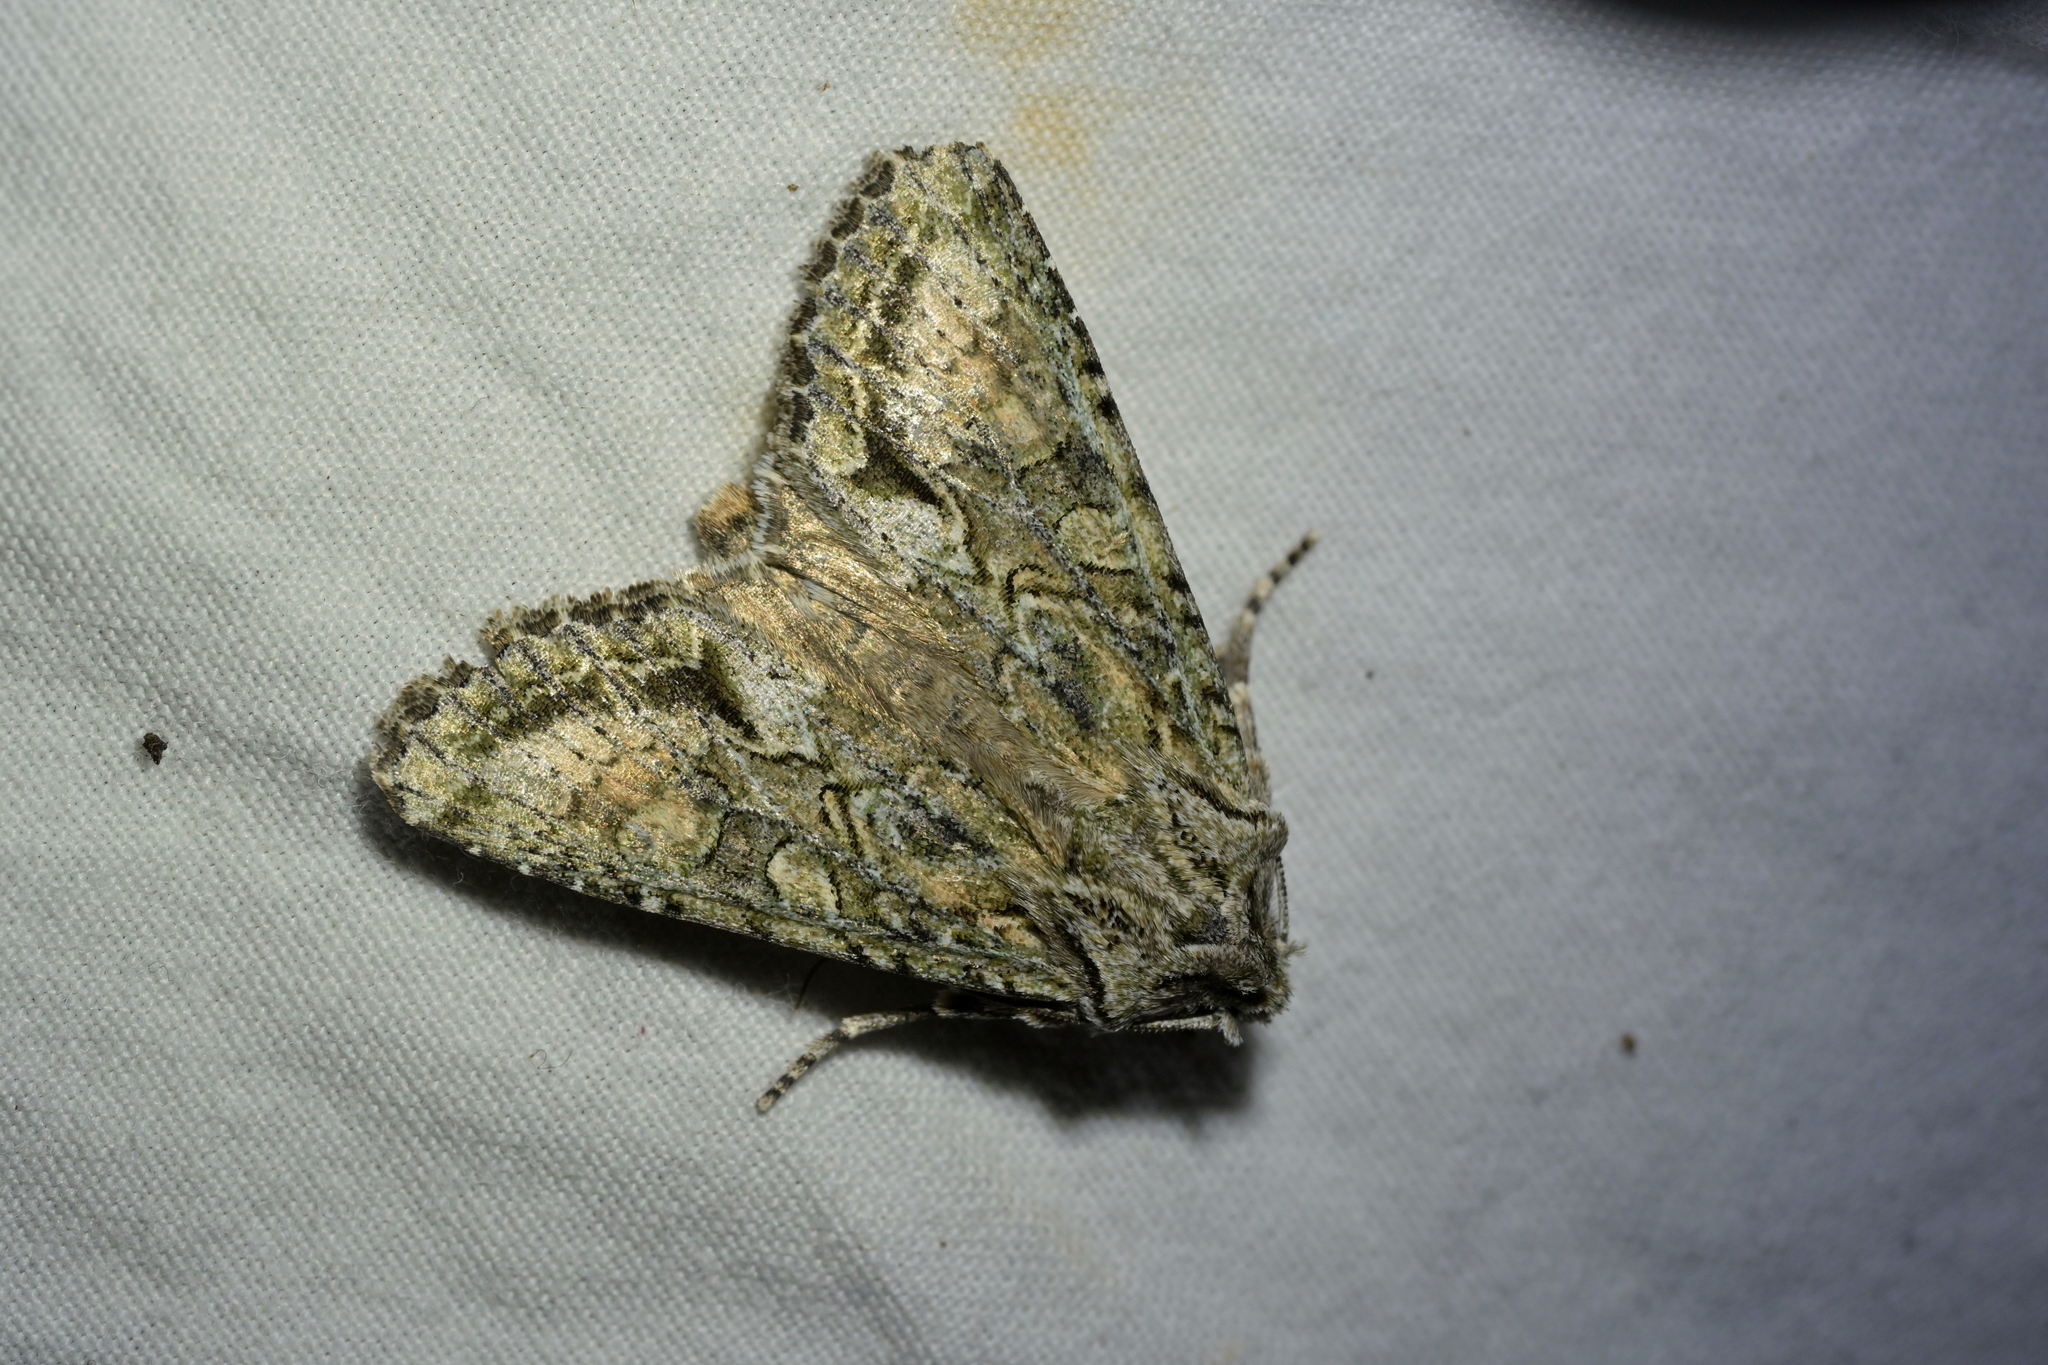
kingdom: Animalia
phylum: Arthropoda
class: Insecta
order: Lepidoptera
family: Noctuidae
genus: Ichneutica
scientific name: Ichneutica mutans
